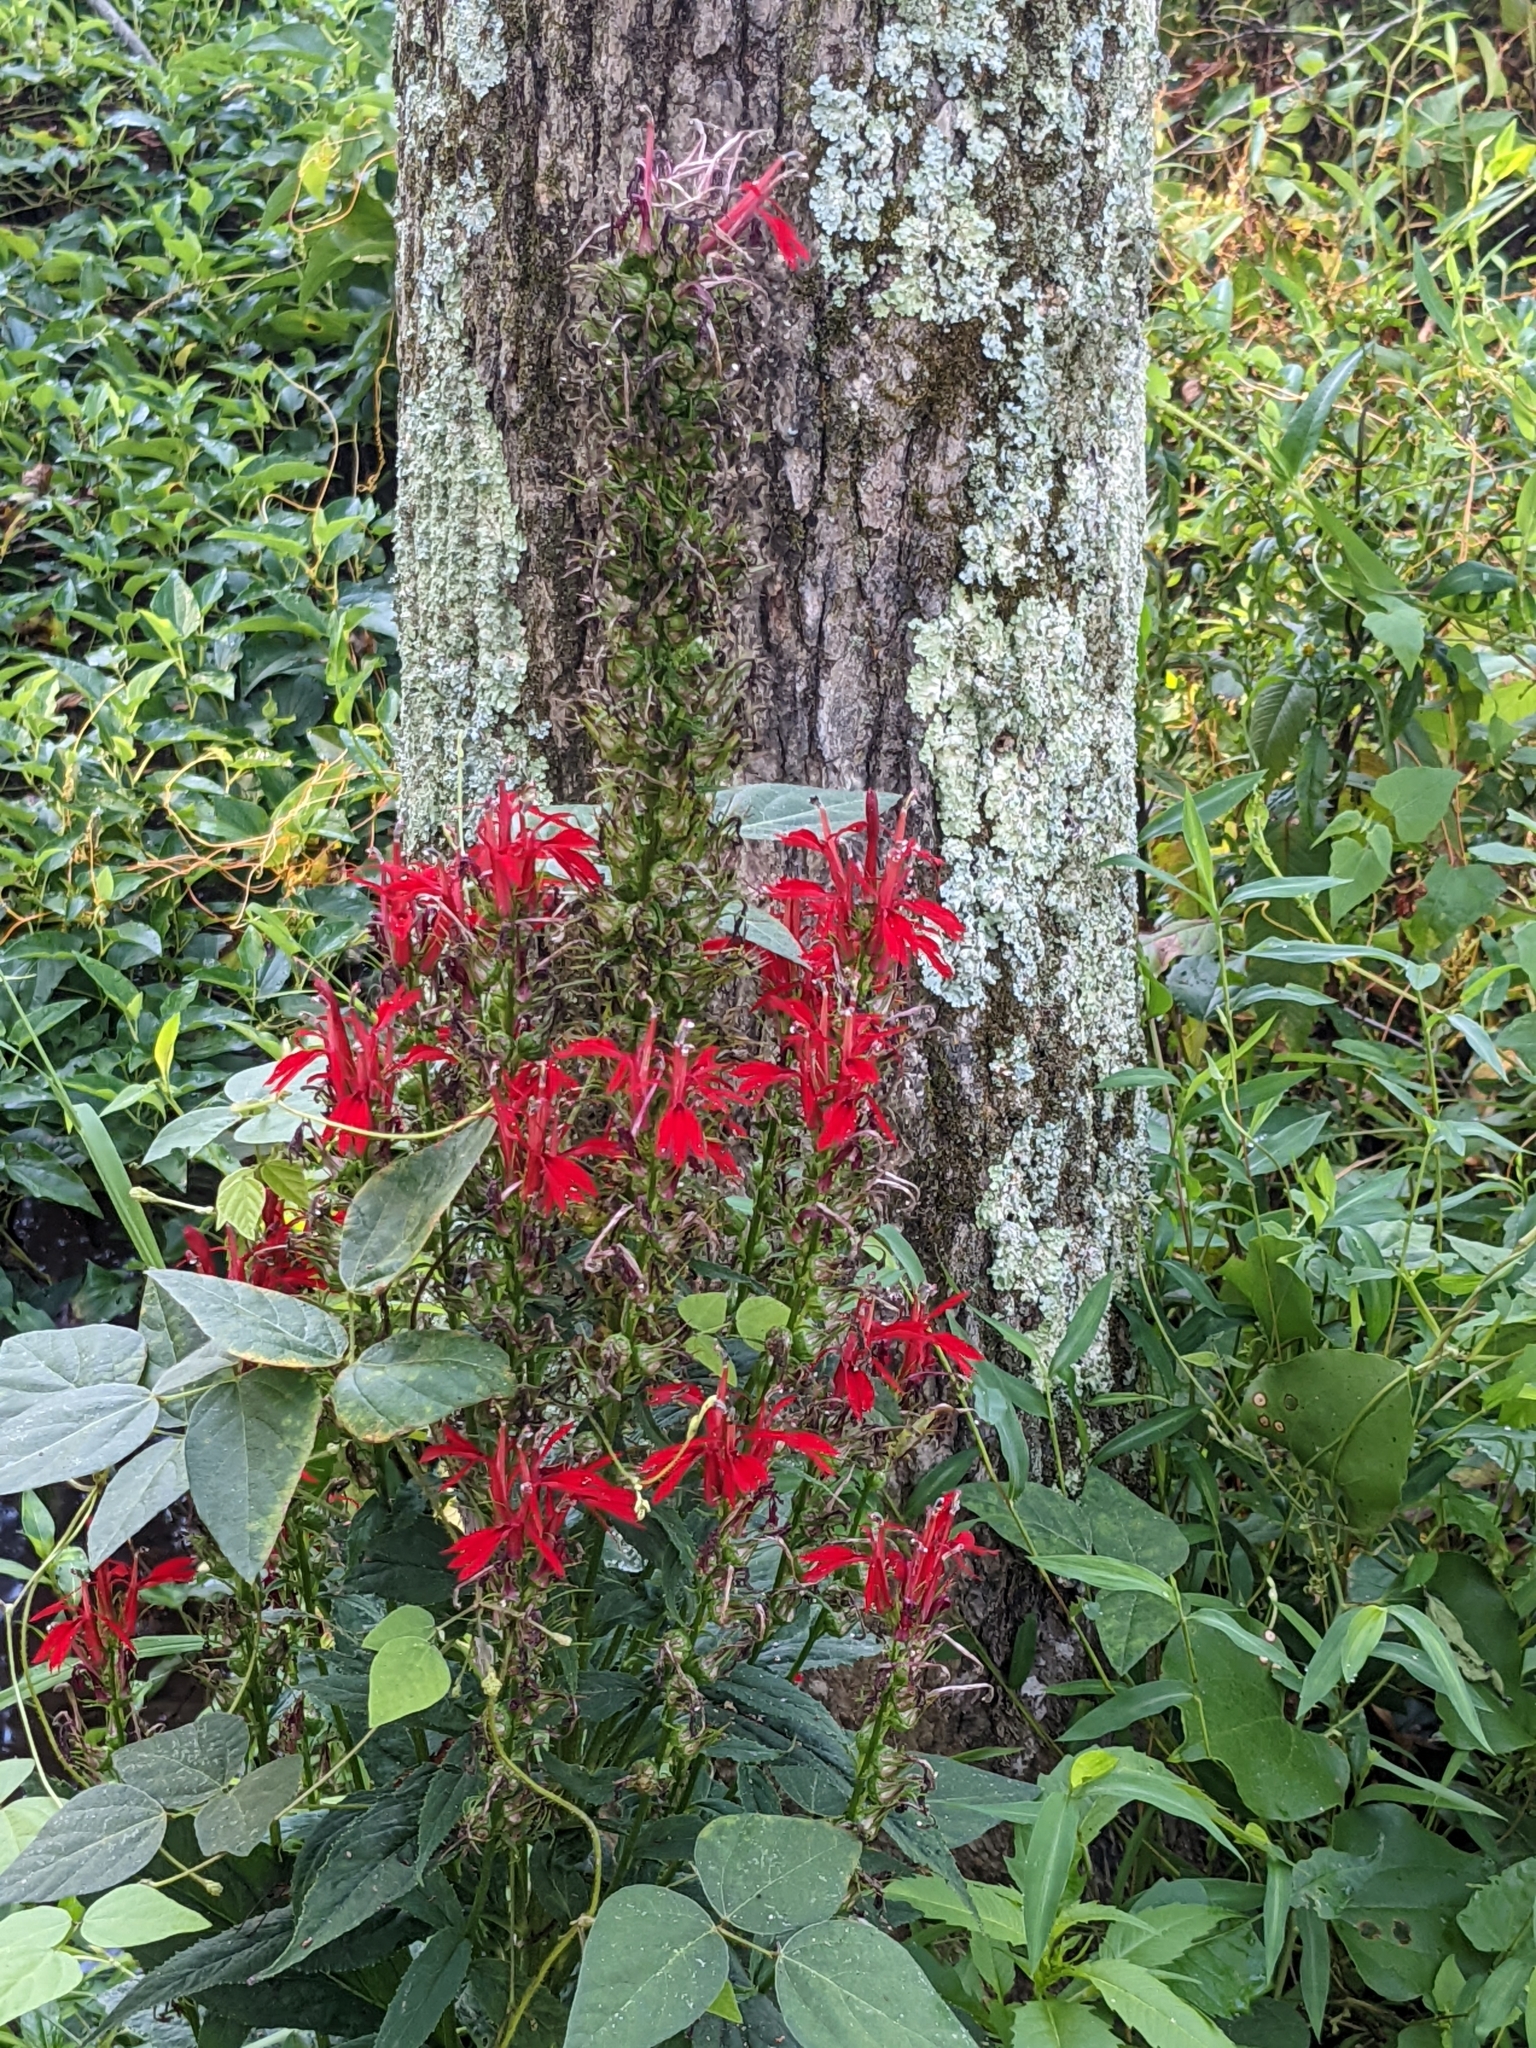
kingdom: Plantae
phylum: Tracheophyta
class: Magnoliopsida
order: Asterales
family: Campanulaceae
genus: Lobelia
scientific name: Lobelia cardinalis
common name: Cardinal flower
